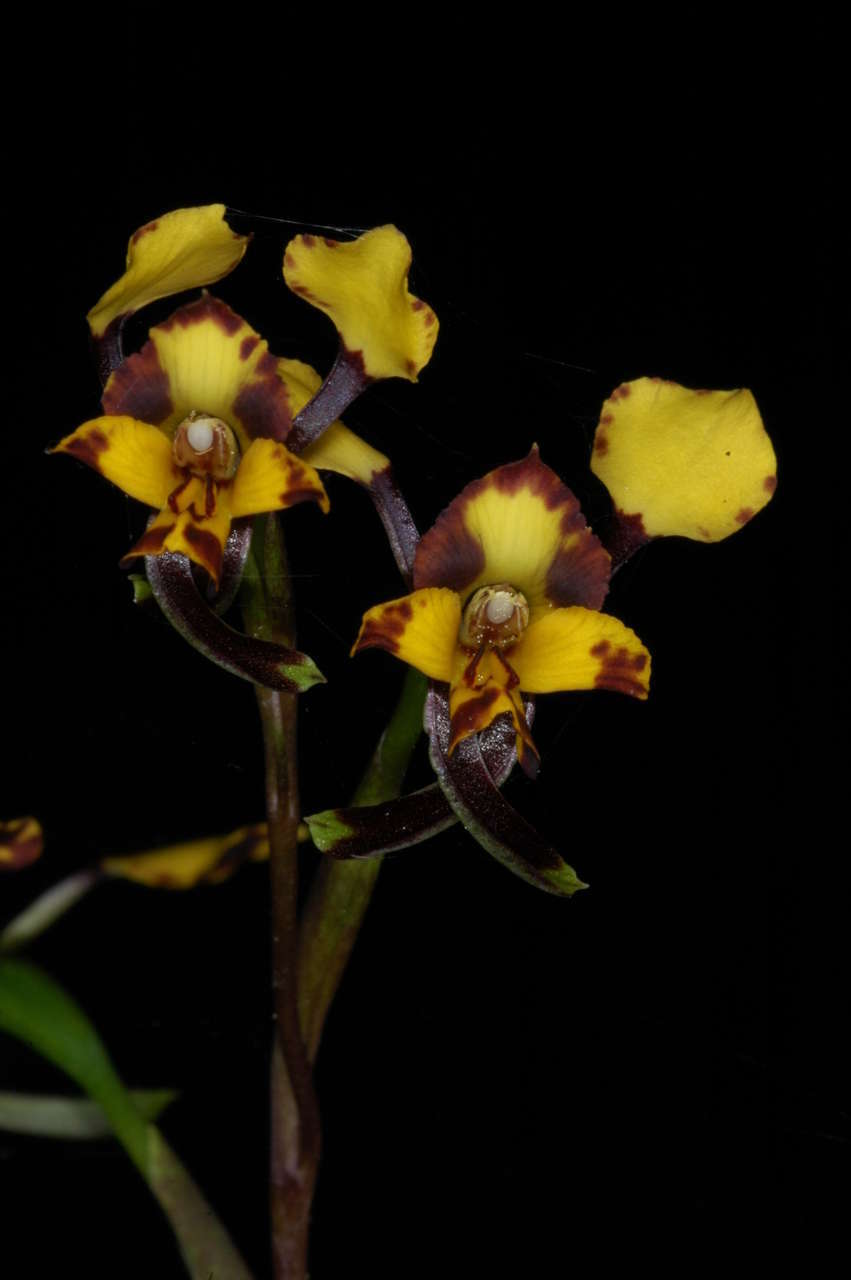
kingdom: Plantae
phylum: Tracheophyta
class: Liliopsida
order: Asparagales
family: Orchidaceae
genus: Diuris
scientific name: Diuris pardina
